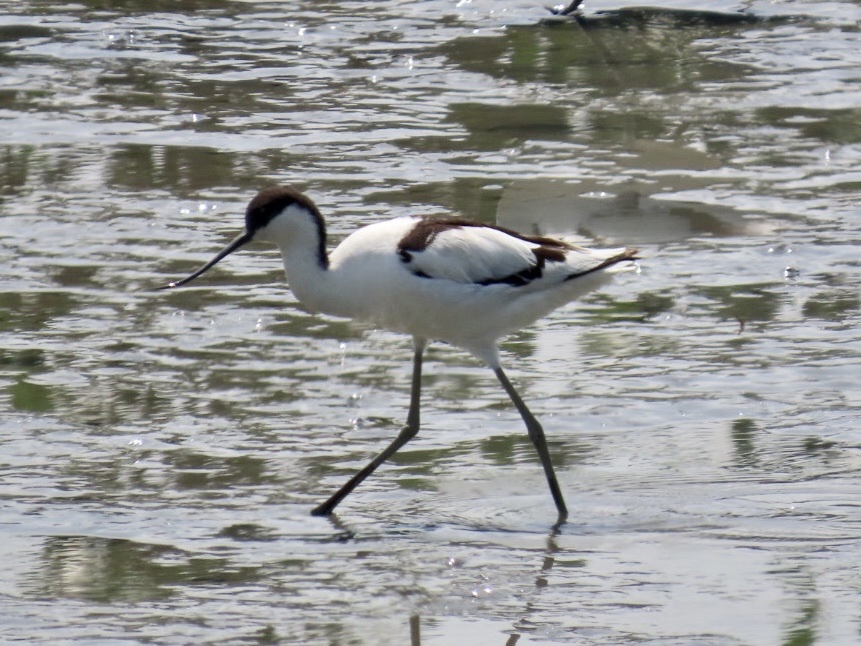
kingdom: Animalia
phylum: Chordata
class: Aves
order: Charadriiformes
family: Recurvirostridae
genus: Recurvirostra
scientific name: Recurvirostra avosetta
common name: Pied avocet
